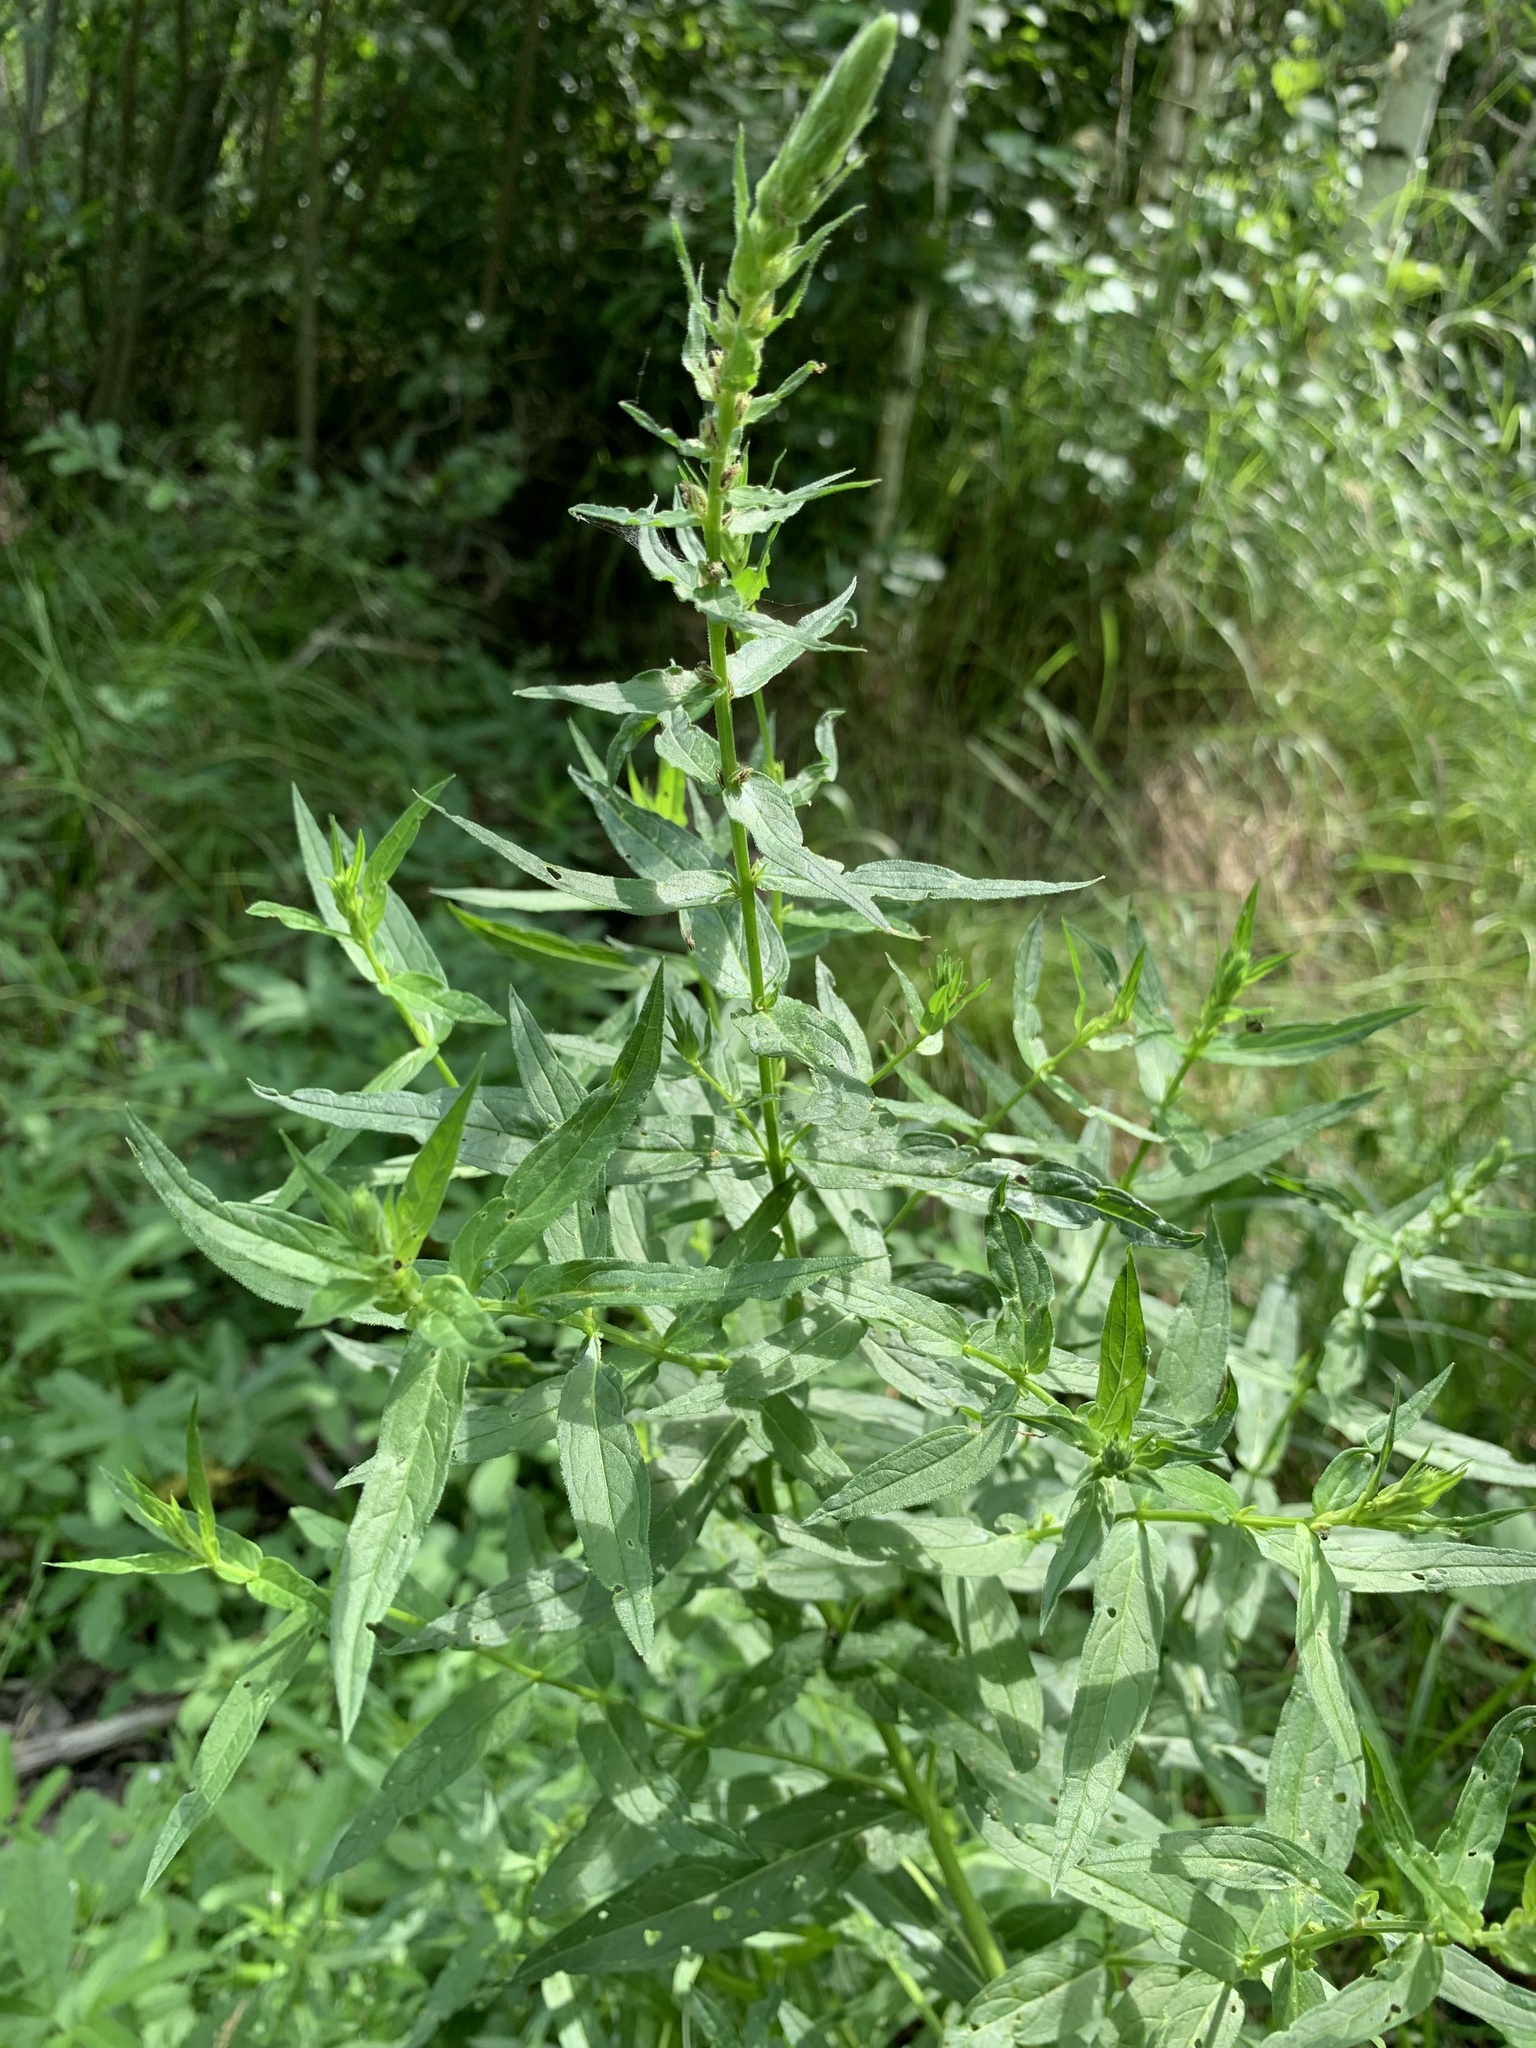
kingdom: Plantae
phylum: Tracheophyta
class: Magnoliopsida
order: Myrtales
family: Lythraceae
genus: Lythrum
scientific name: Lythrum salicaria
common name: Purple loosestrife
